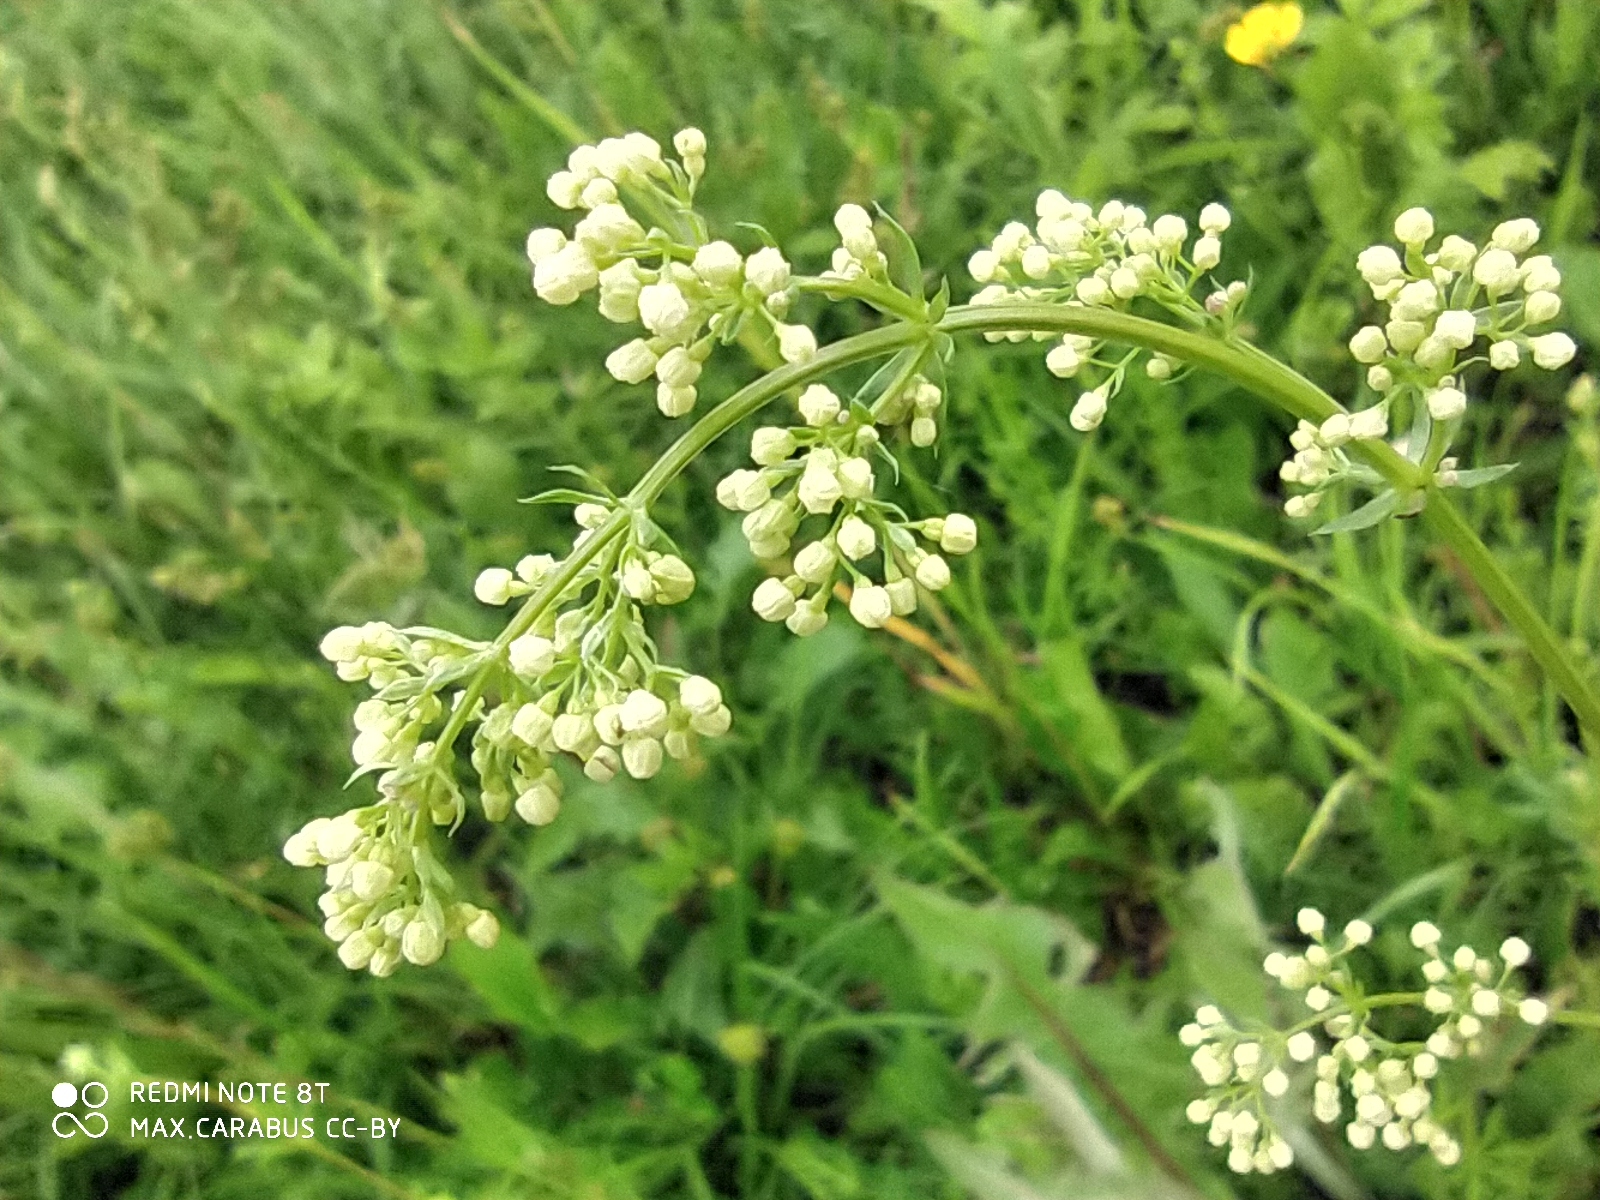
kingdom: Plantae
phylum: Tracheophyta
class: Magnoliopsida
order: Gentianales
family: Rubiaceae
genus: Galium
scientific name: Galium mollugo
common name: Hedge bedstraw
